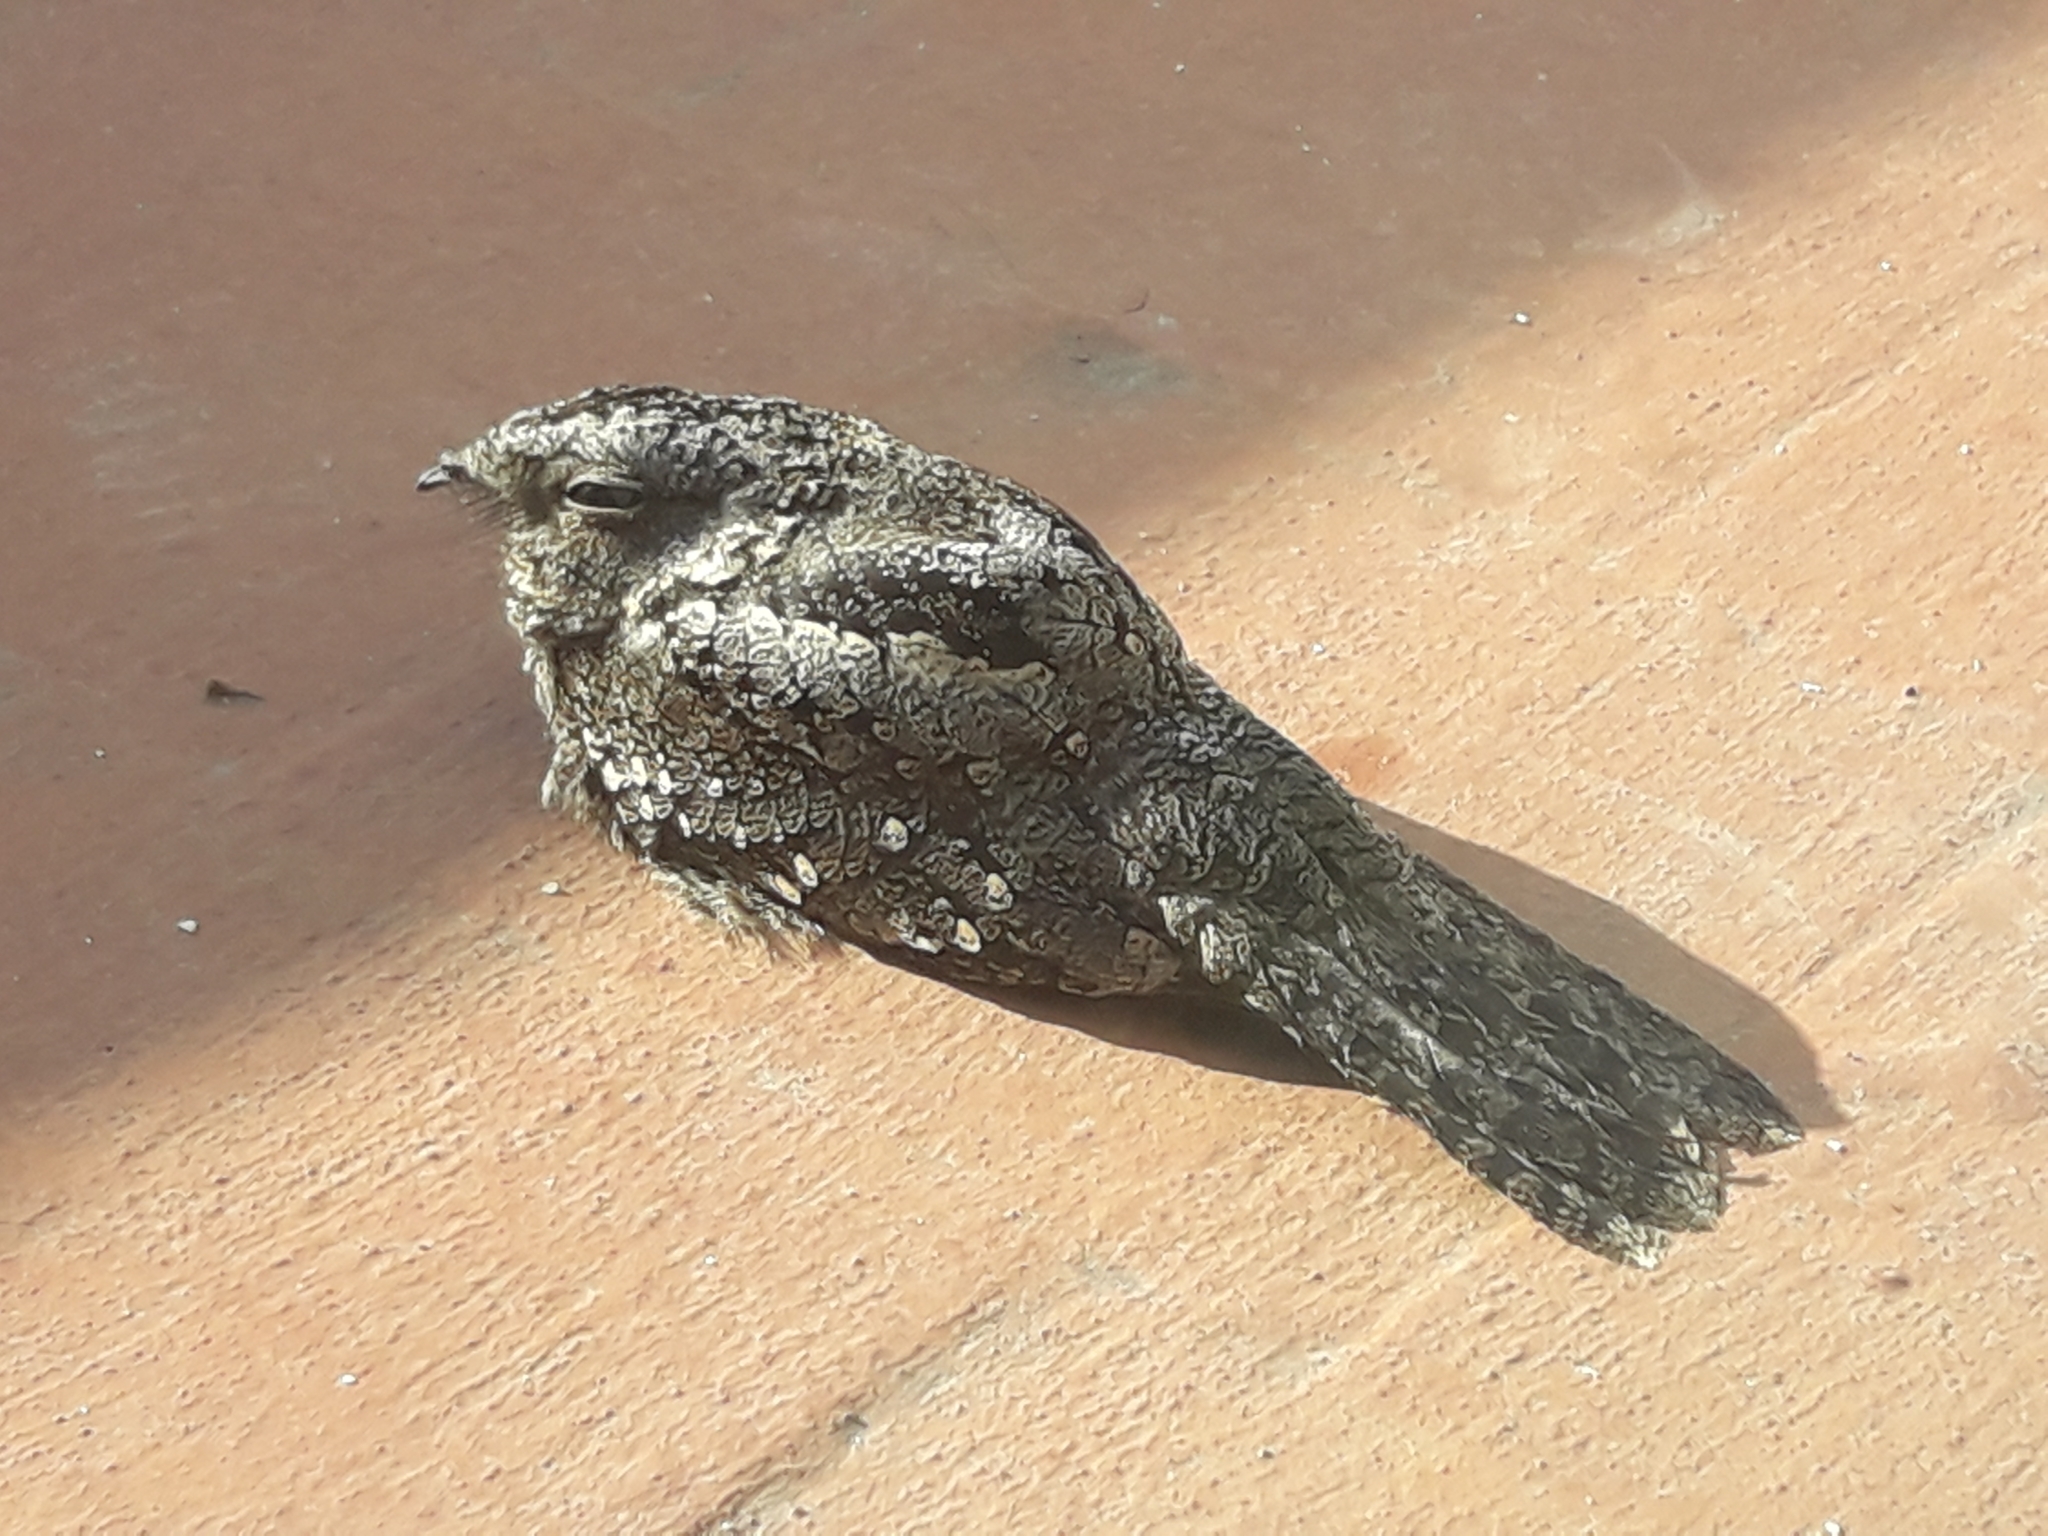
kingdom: Animalia
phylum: Chordata
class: Aves
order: Caprimulgiformes
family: Caprimulgidae
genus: Systellura
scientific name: Systellura longirostris
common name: Band-winged nightjar
